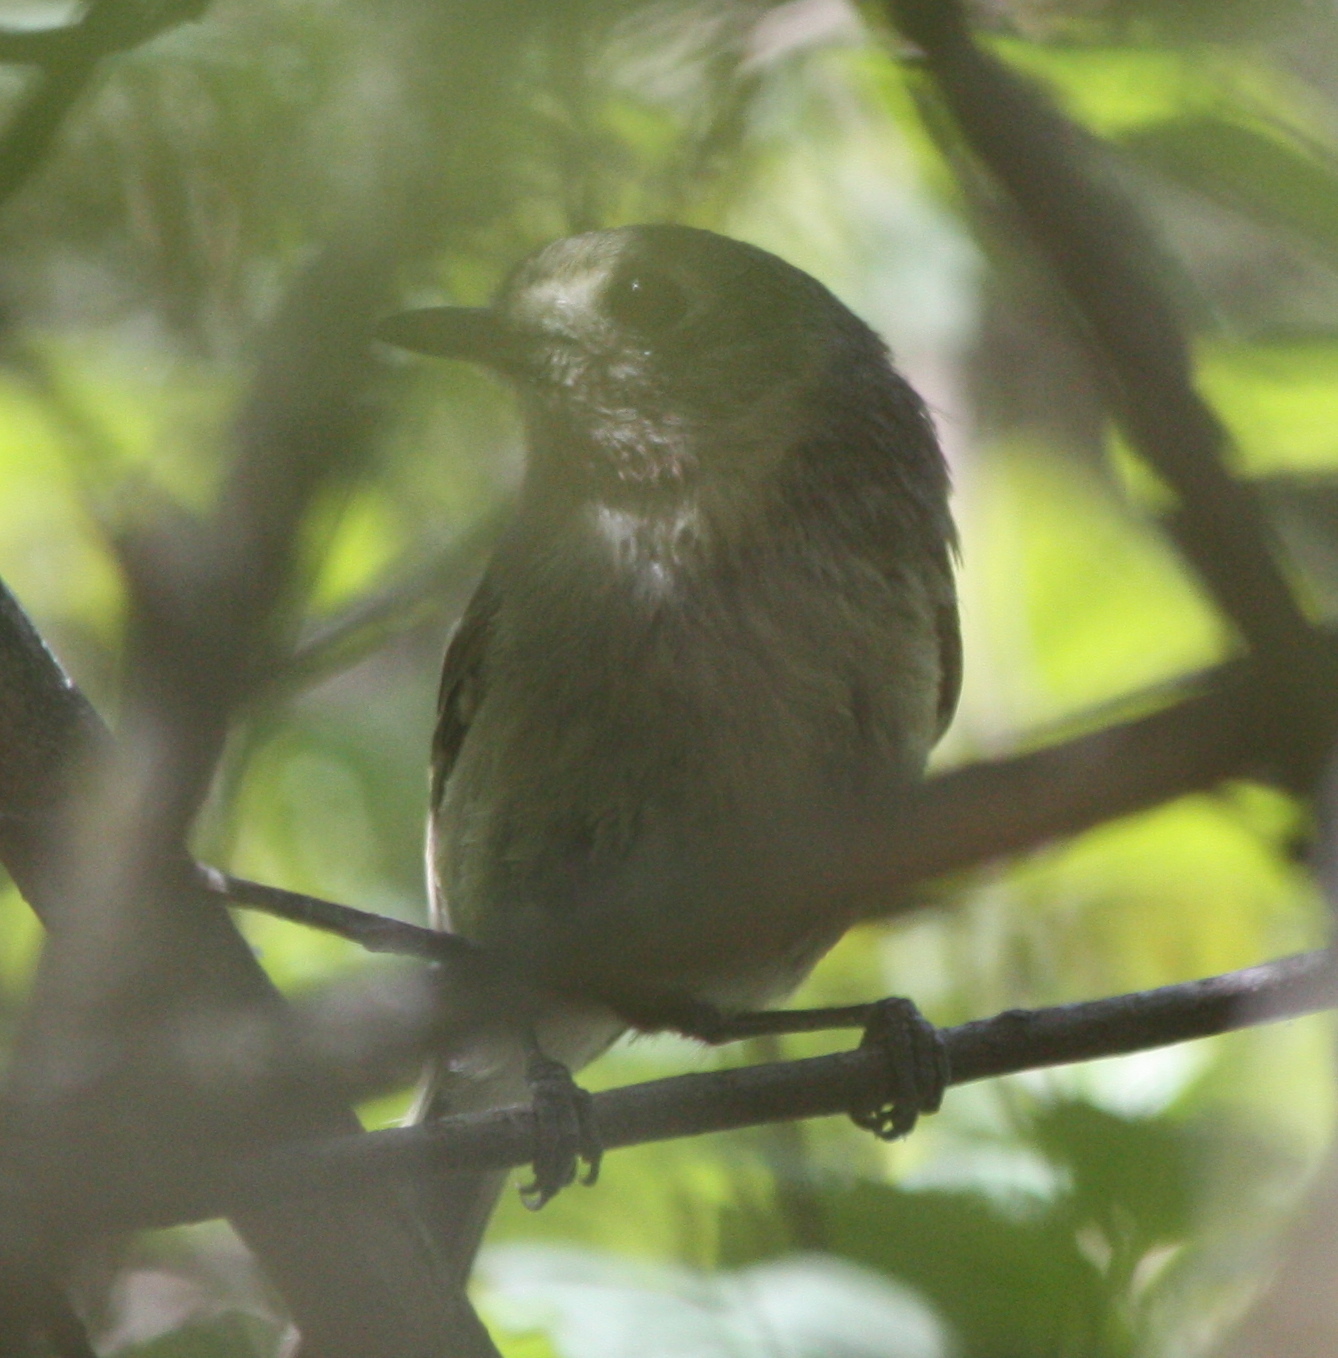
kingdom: Animalia
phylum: Chordata
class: Aves
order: Passeriformes
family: Vireonidae
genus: Vireo
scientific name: Vireo huttoni
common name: Hutton's vireo
